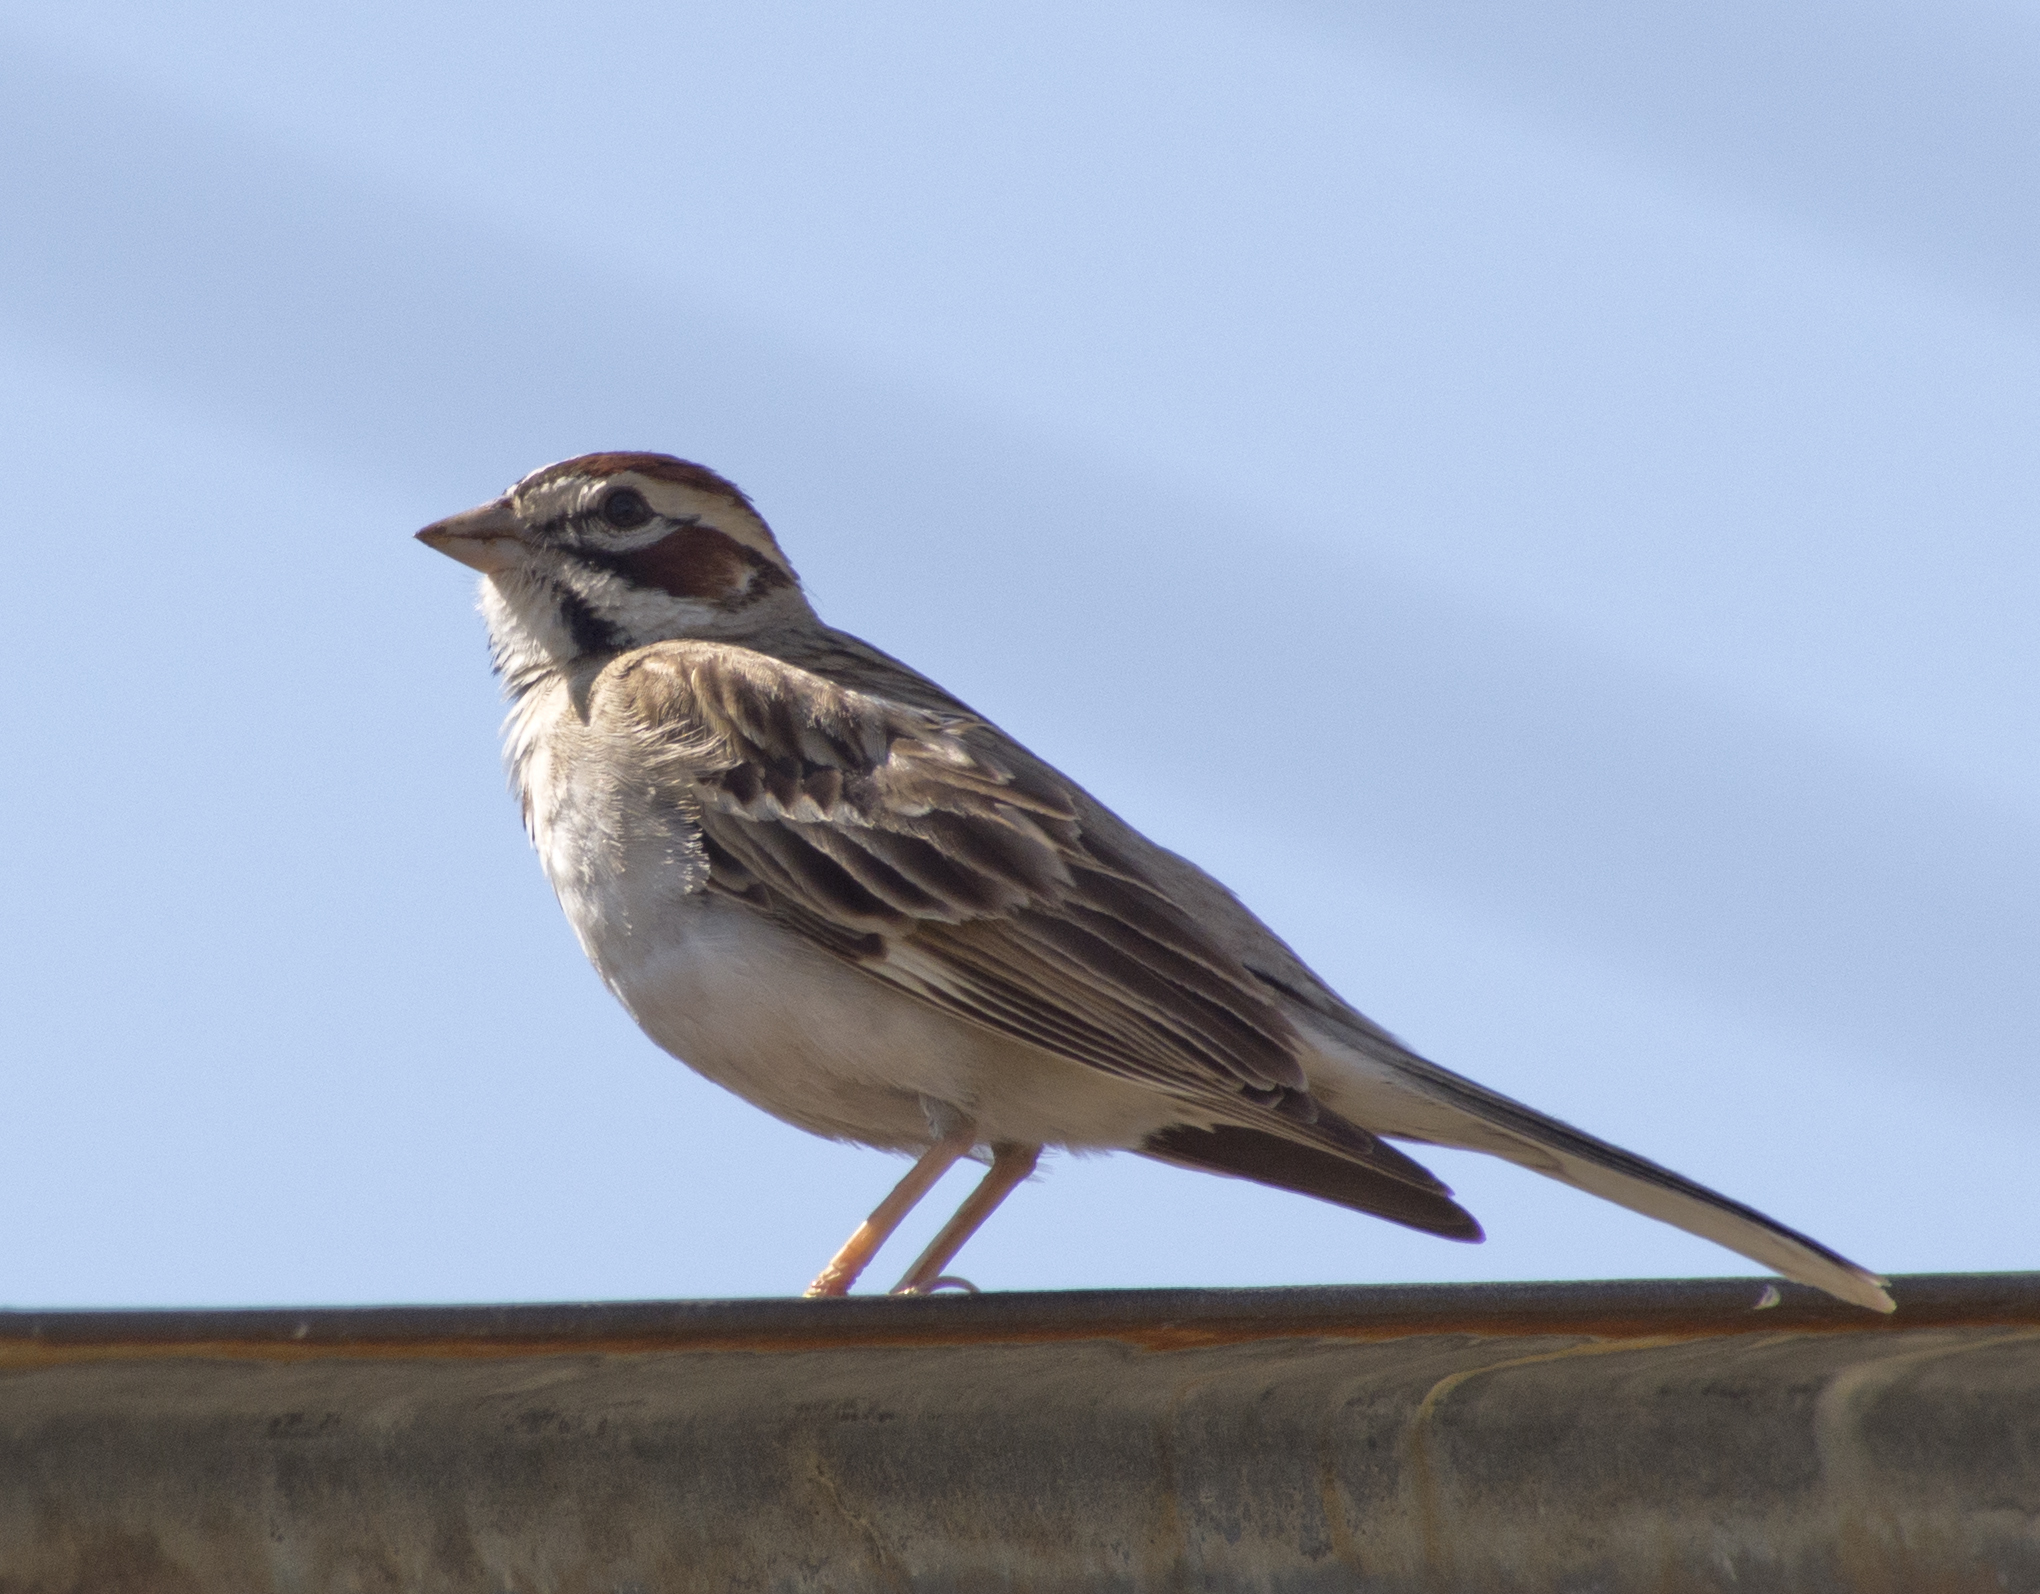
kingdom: Animalia
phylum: Chordata
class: Aves
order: Passeriformes
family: Passerellidae
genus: Chondestes
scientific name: Chondestes grammacus
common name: Lark sparrow
